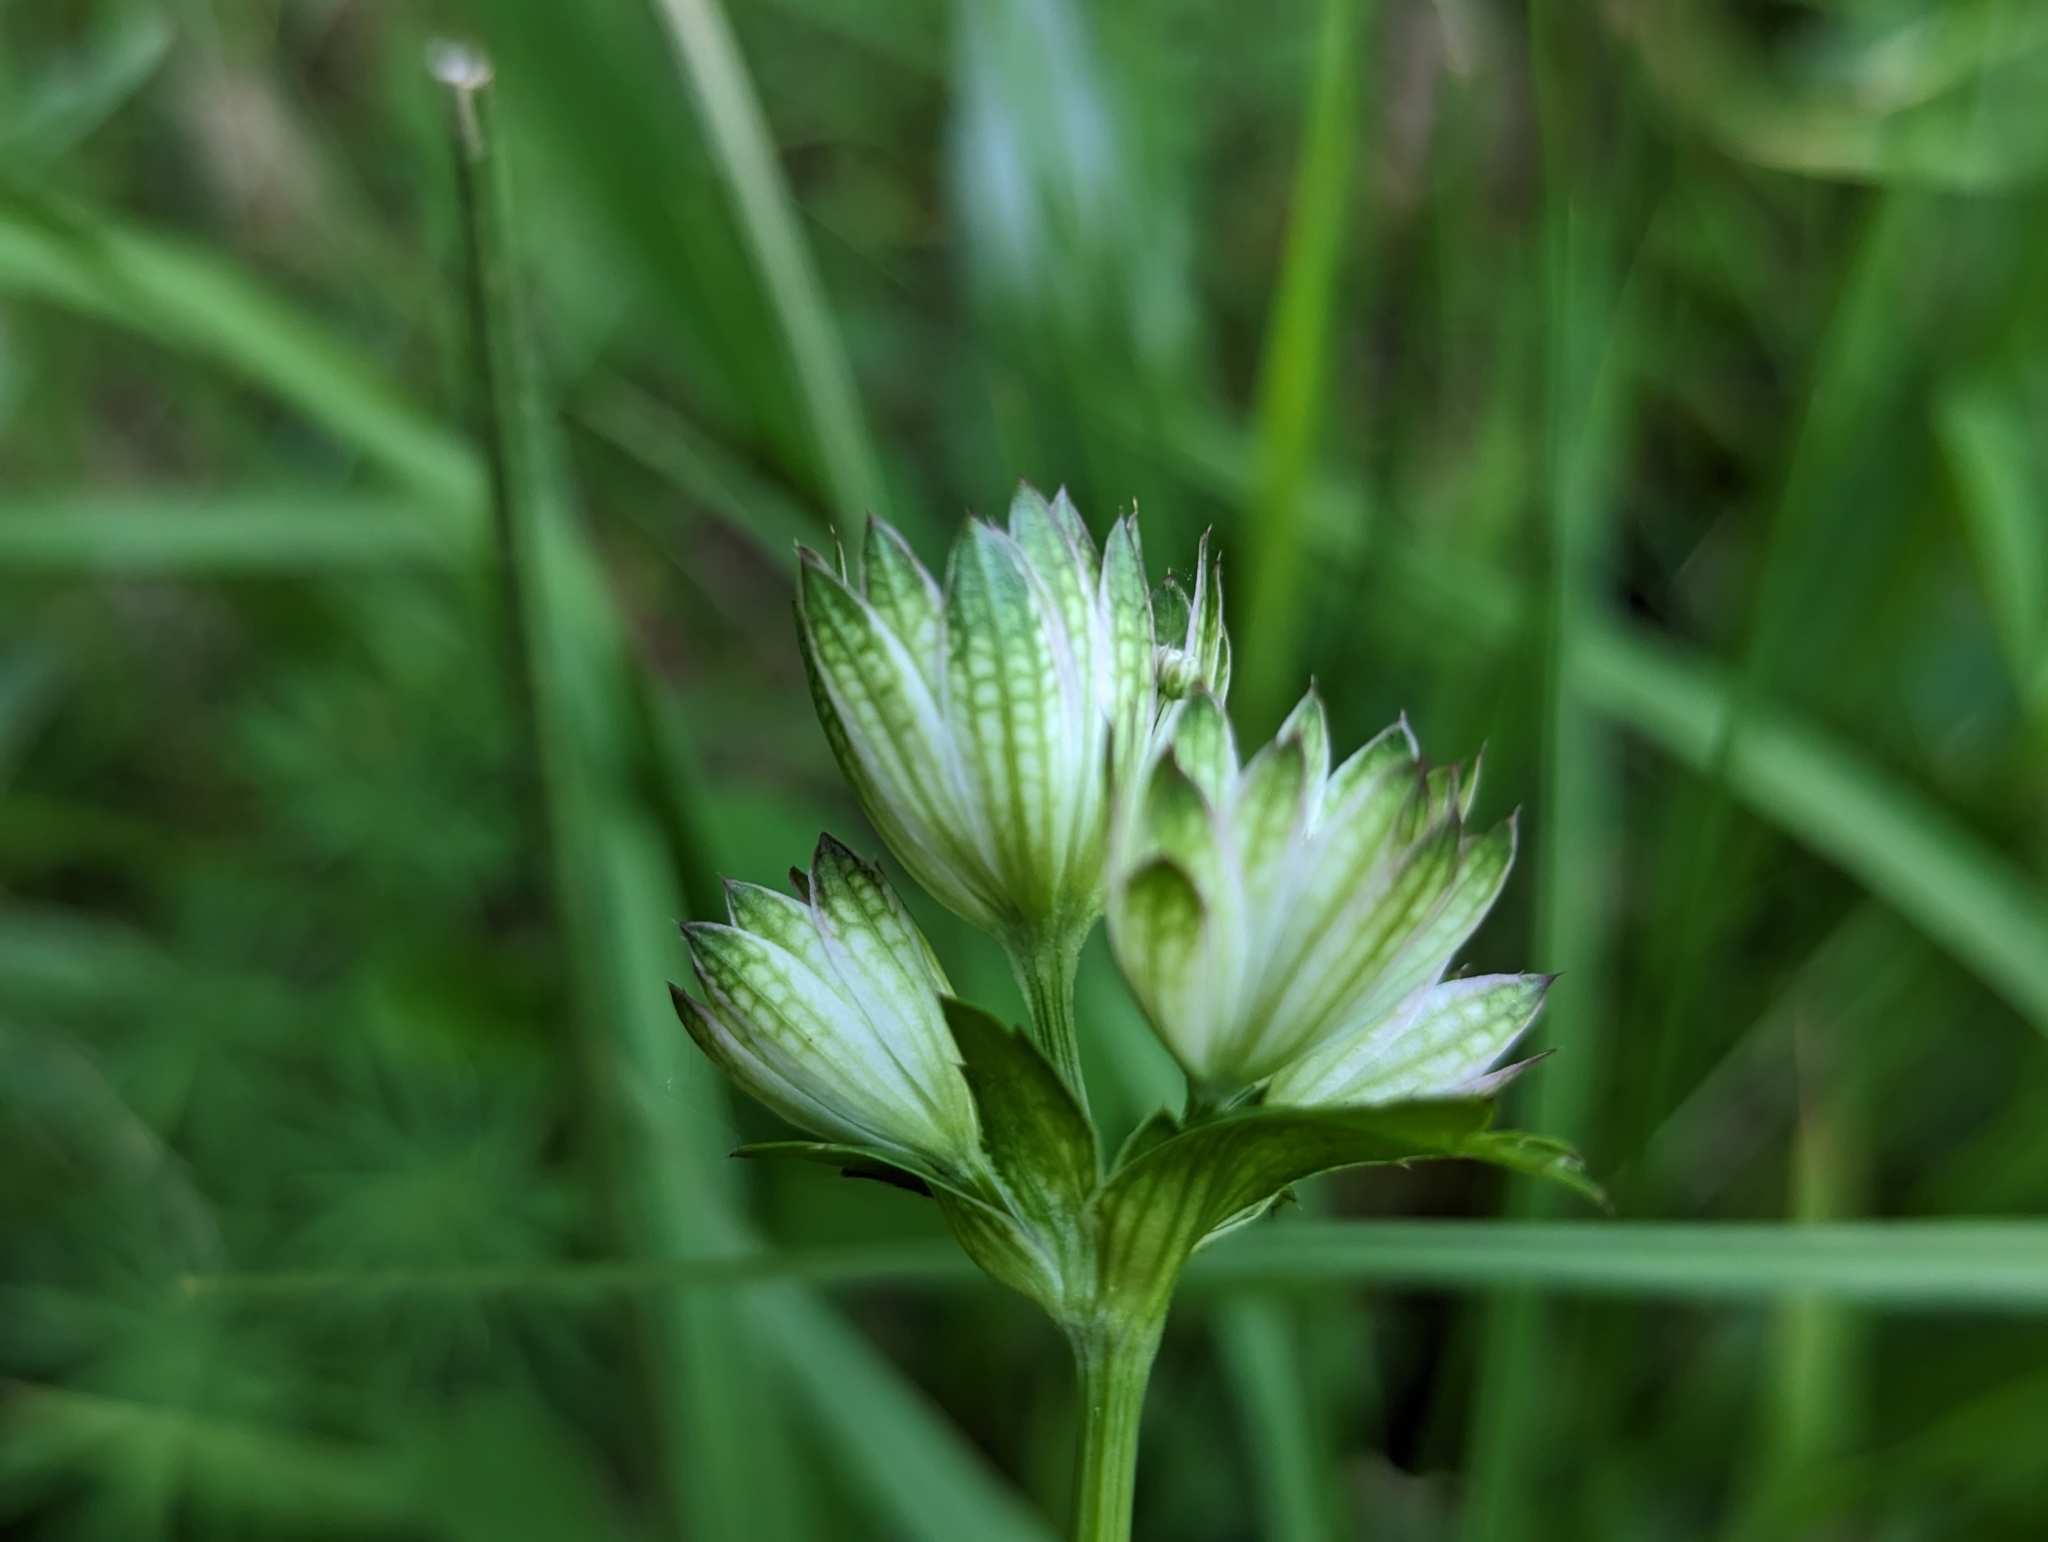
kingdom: Plantae
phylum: Tracheophyta
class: Magnoliopsida
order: Apiales
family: Apiaceae
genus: Astrantia
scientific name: Astrantia major
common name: Greater masterwort
